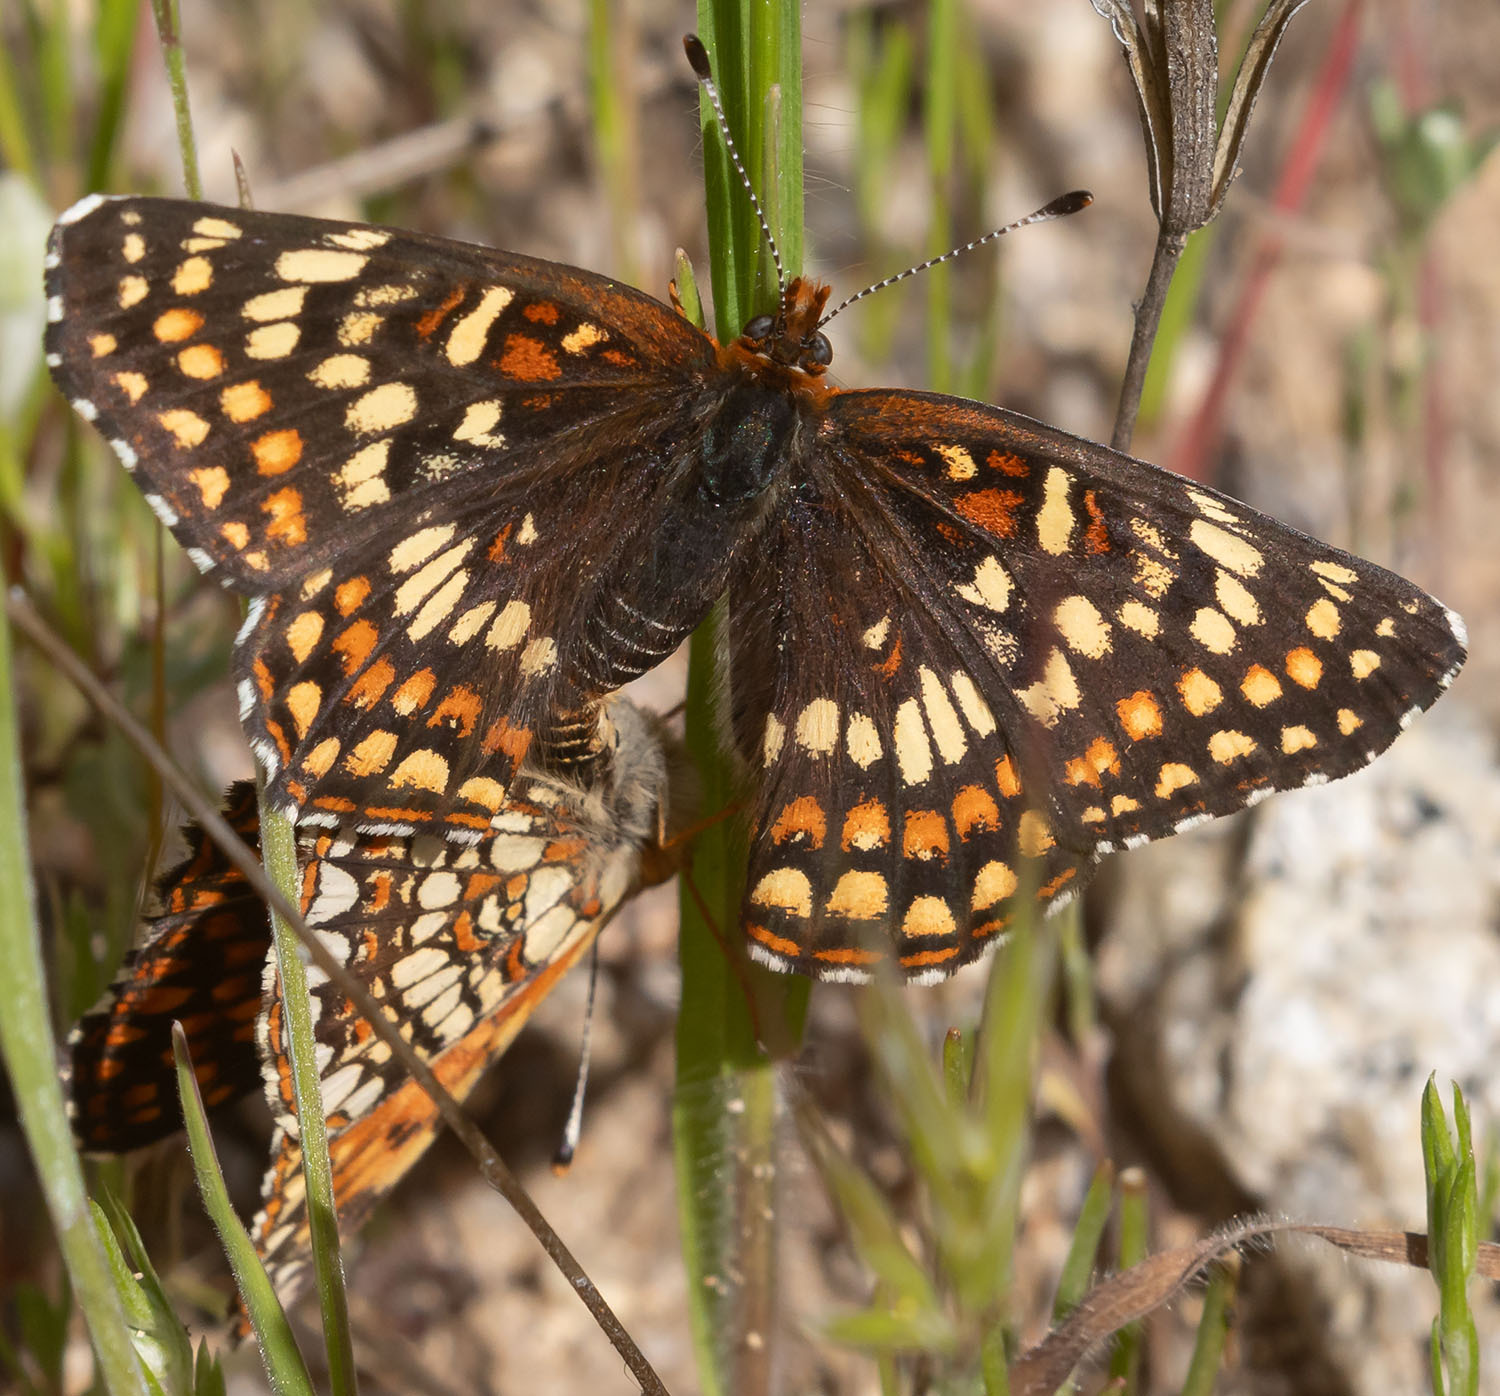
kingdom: Animalia
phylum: Arthropoda
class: Insecta
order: Lepidoptera
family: Nymphalidae
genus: Chlosyne
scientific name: Chlosyne gabbii
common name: Gabb's checkerspot
